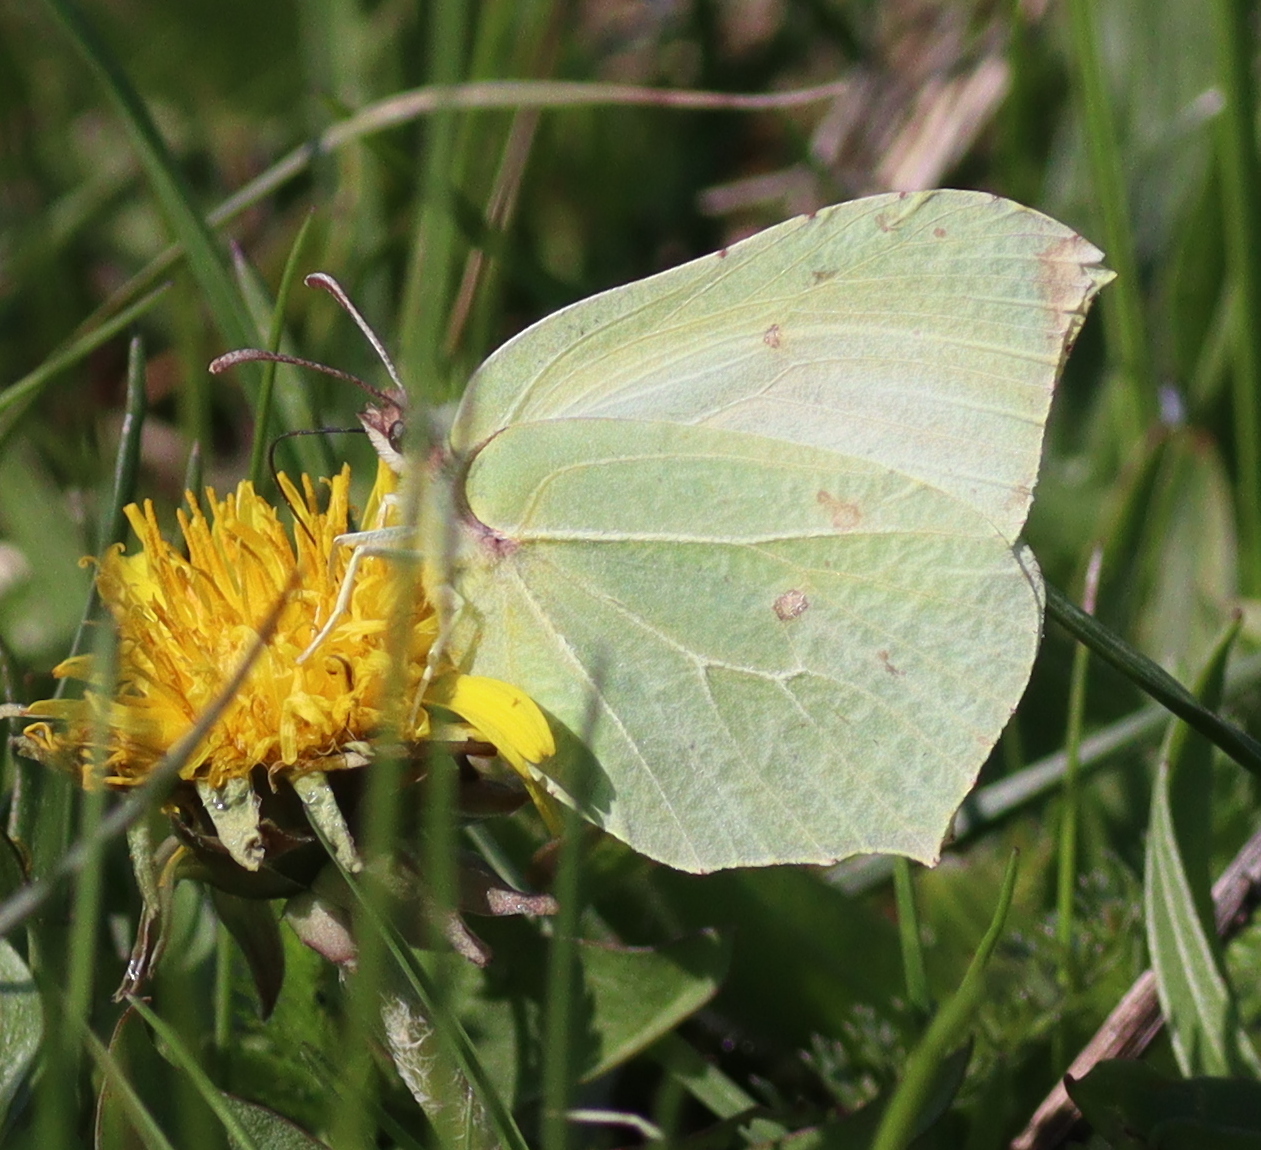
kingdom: Animalia
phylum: Arthropoda
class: Insecta
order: Lepidoptera
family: Pieridae
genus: Gonepteryx
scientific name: Gonepteryx rhamni
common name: Brimstone
